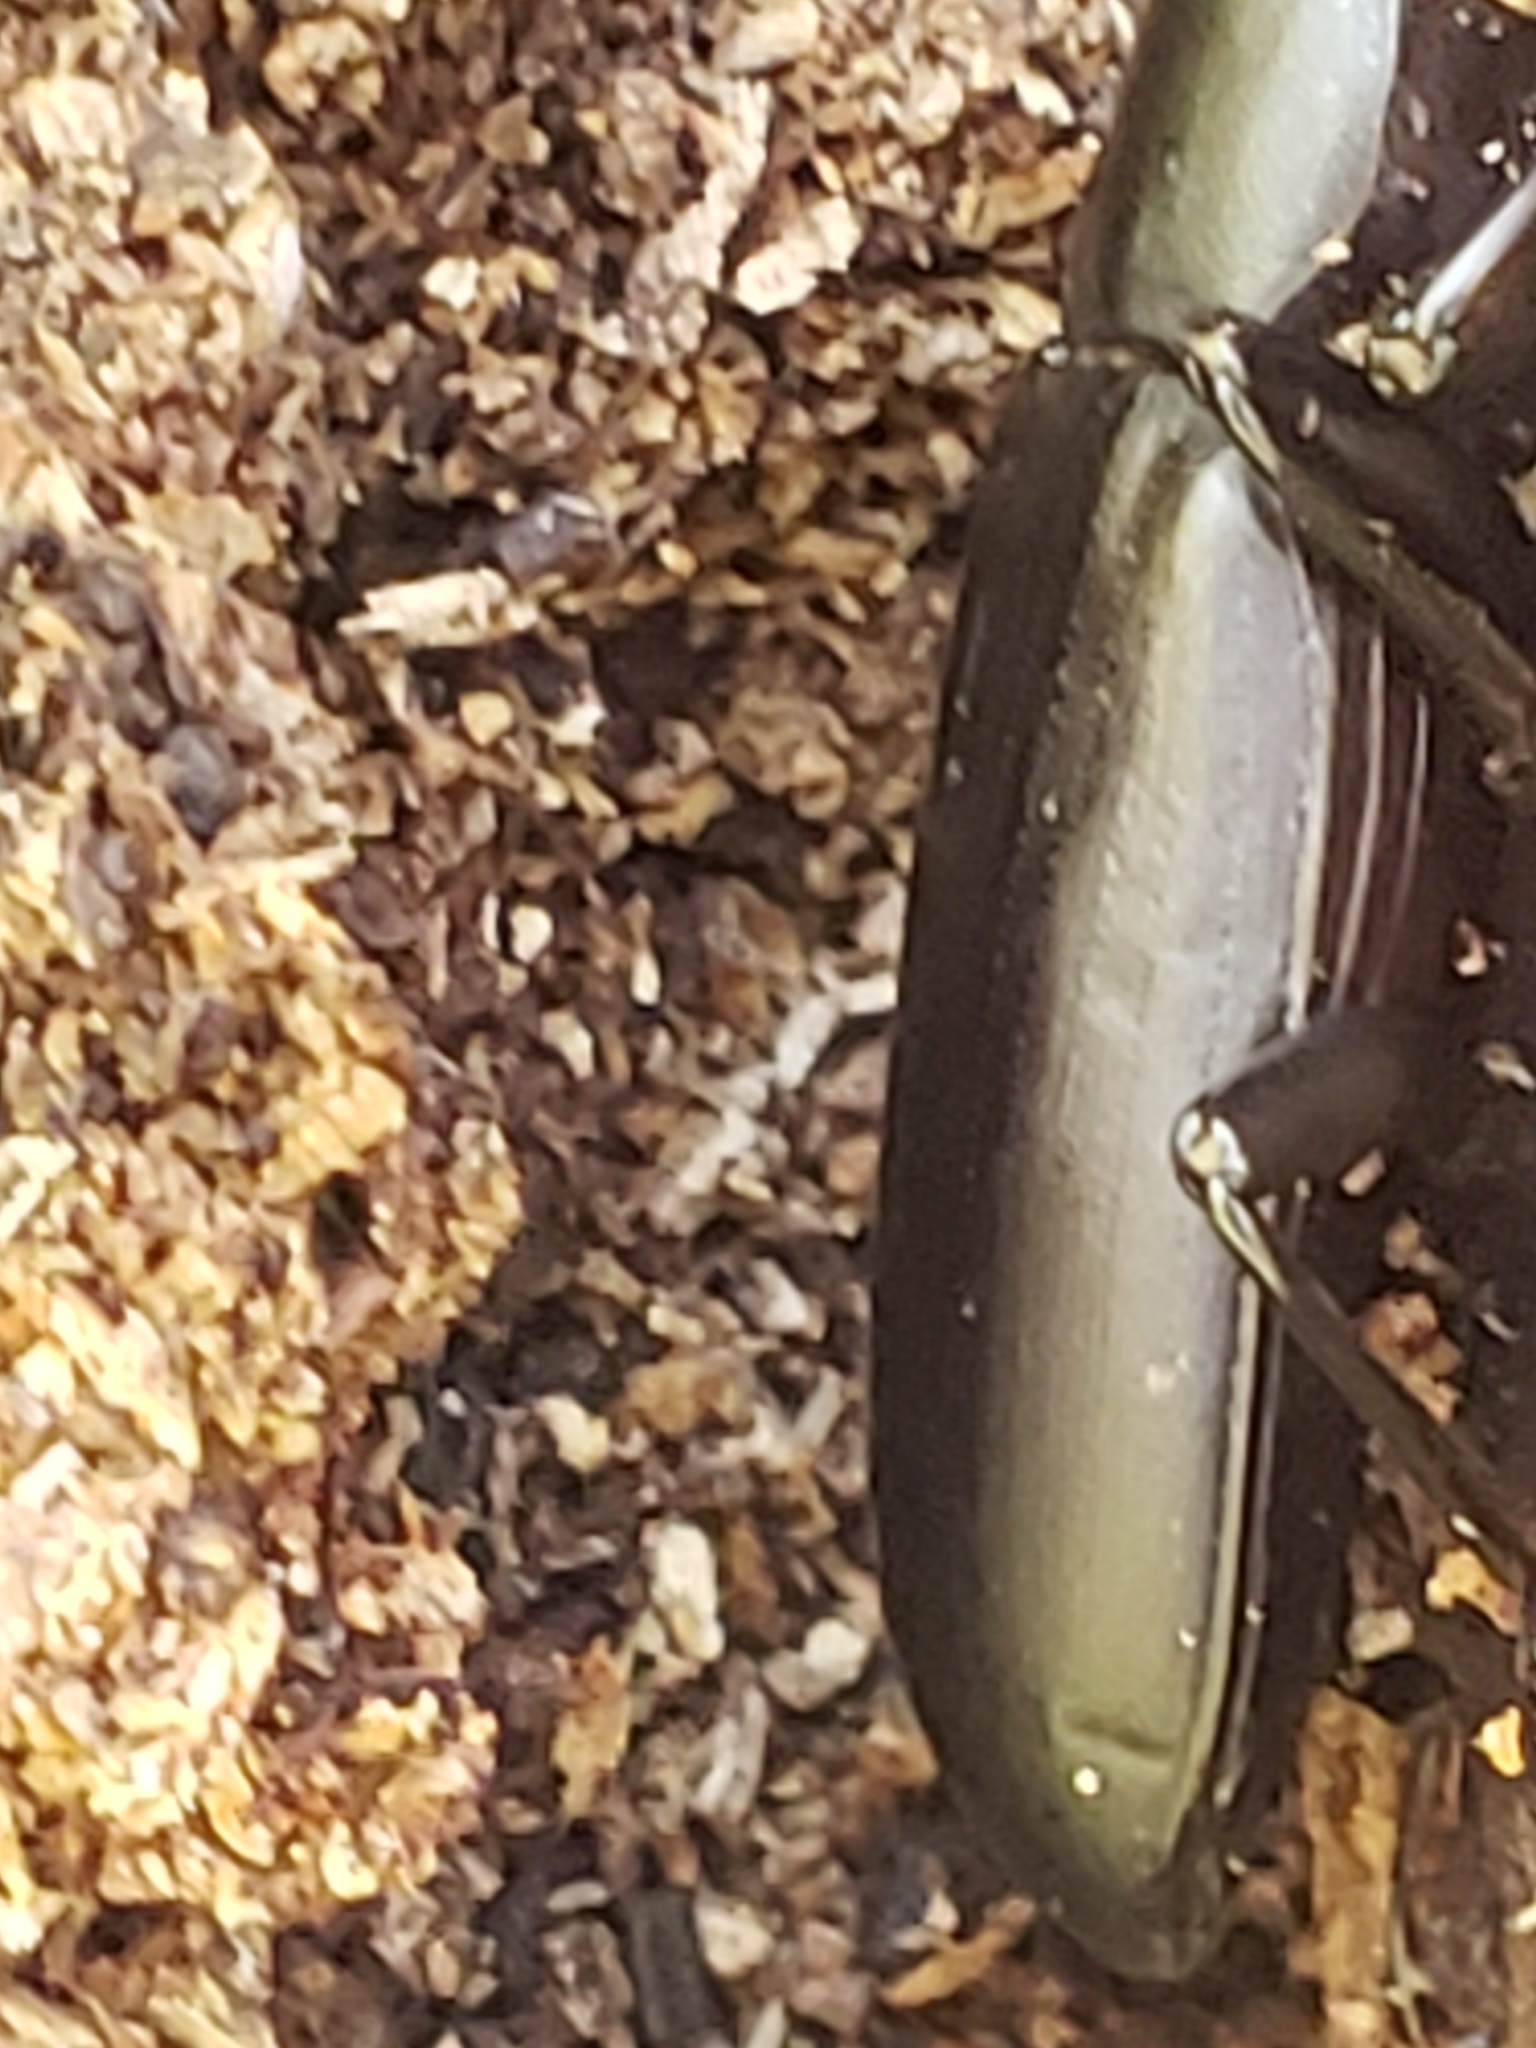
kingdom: Animalia
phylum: Arthropoda
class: Insecta
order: Coleoptera
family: Tenebrionidae
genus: Alobates
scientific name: Alobates
